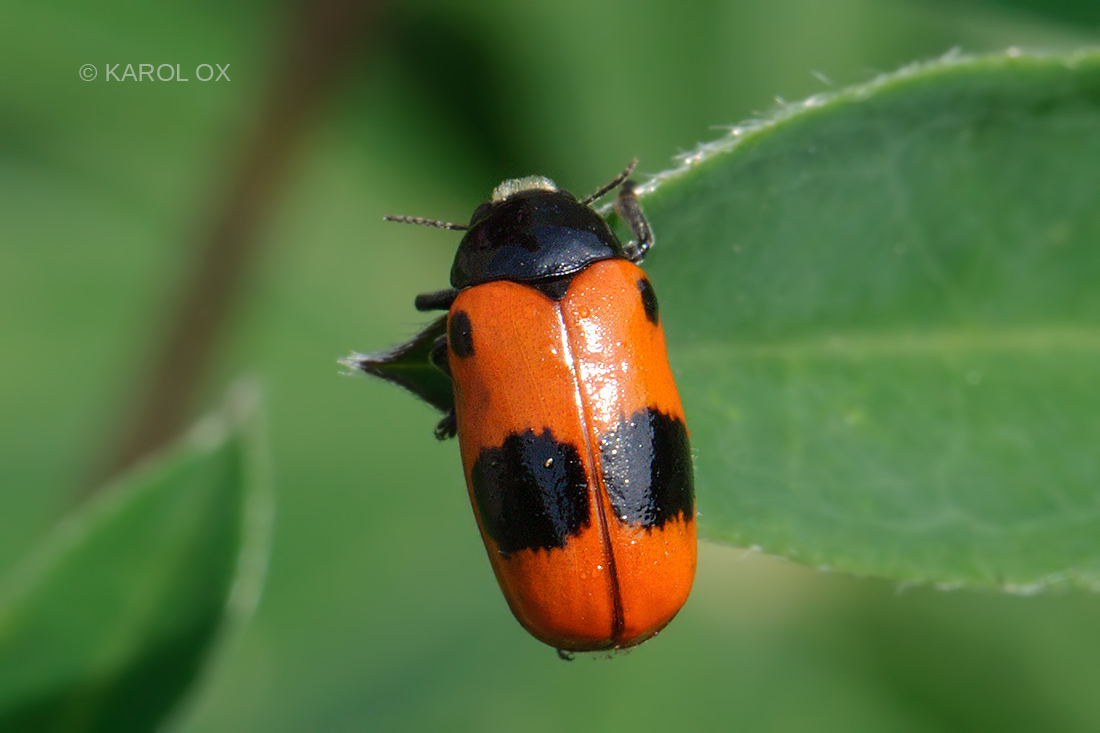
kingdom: Animalia
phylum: Arthropoda
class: Insecta
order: Coleoptera
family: Chrysomelidae
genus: Clytra
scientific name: Clytra laeviuscula
